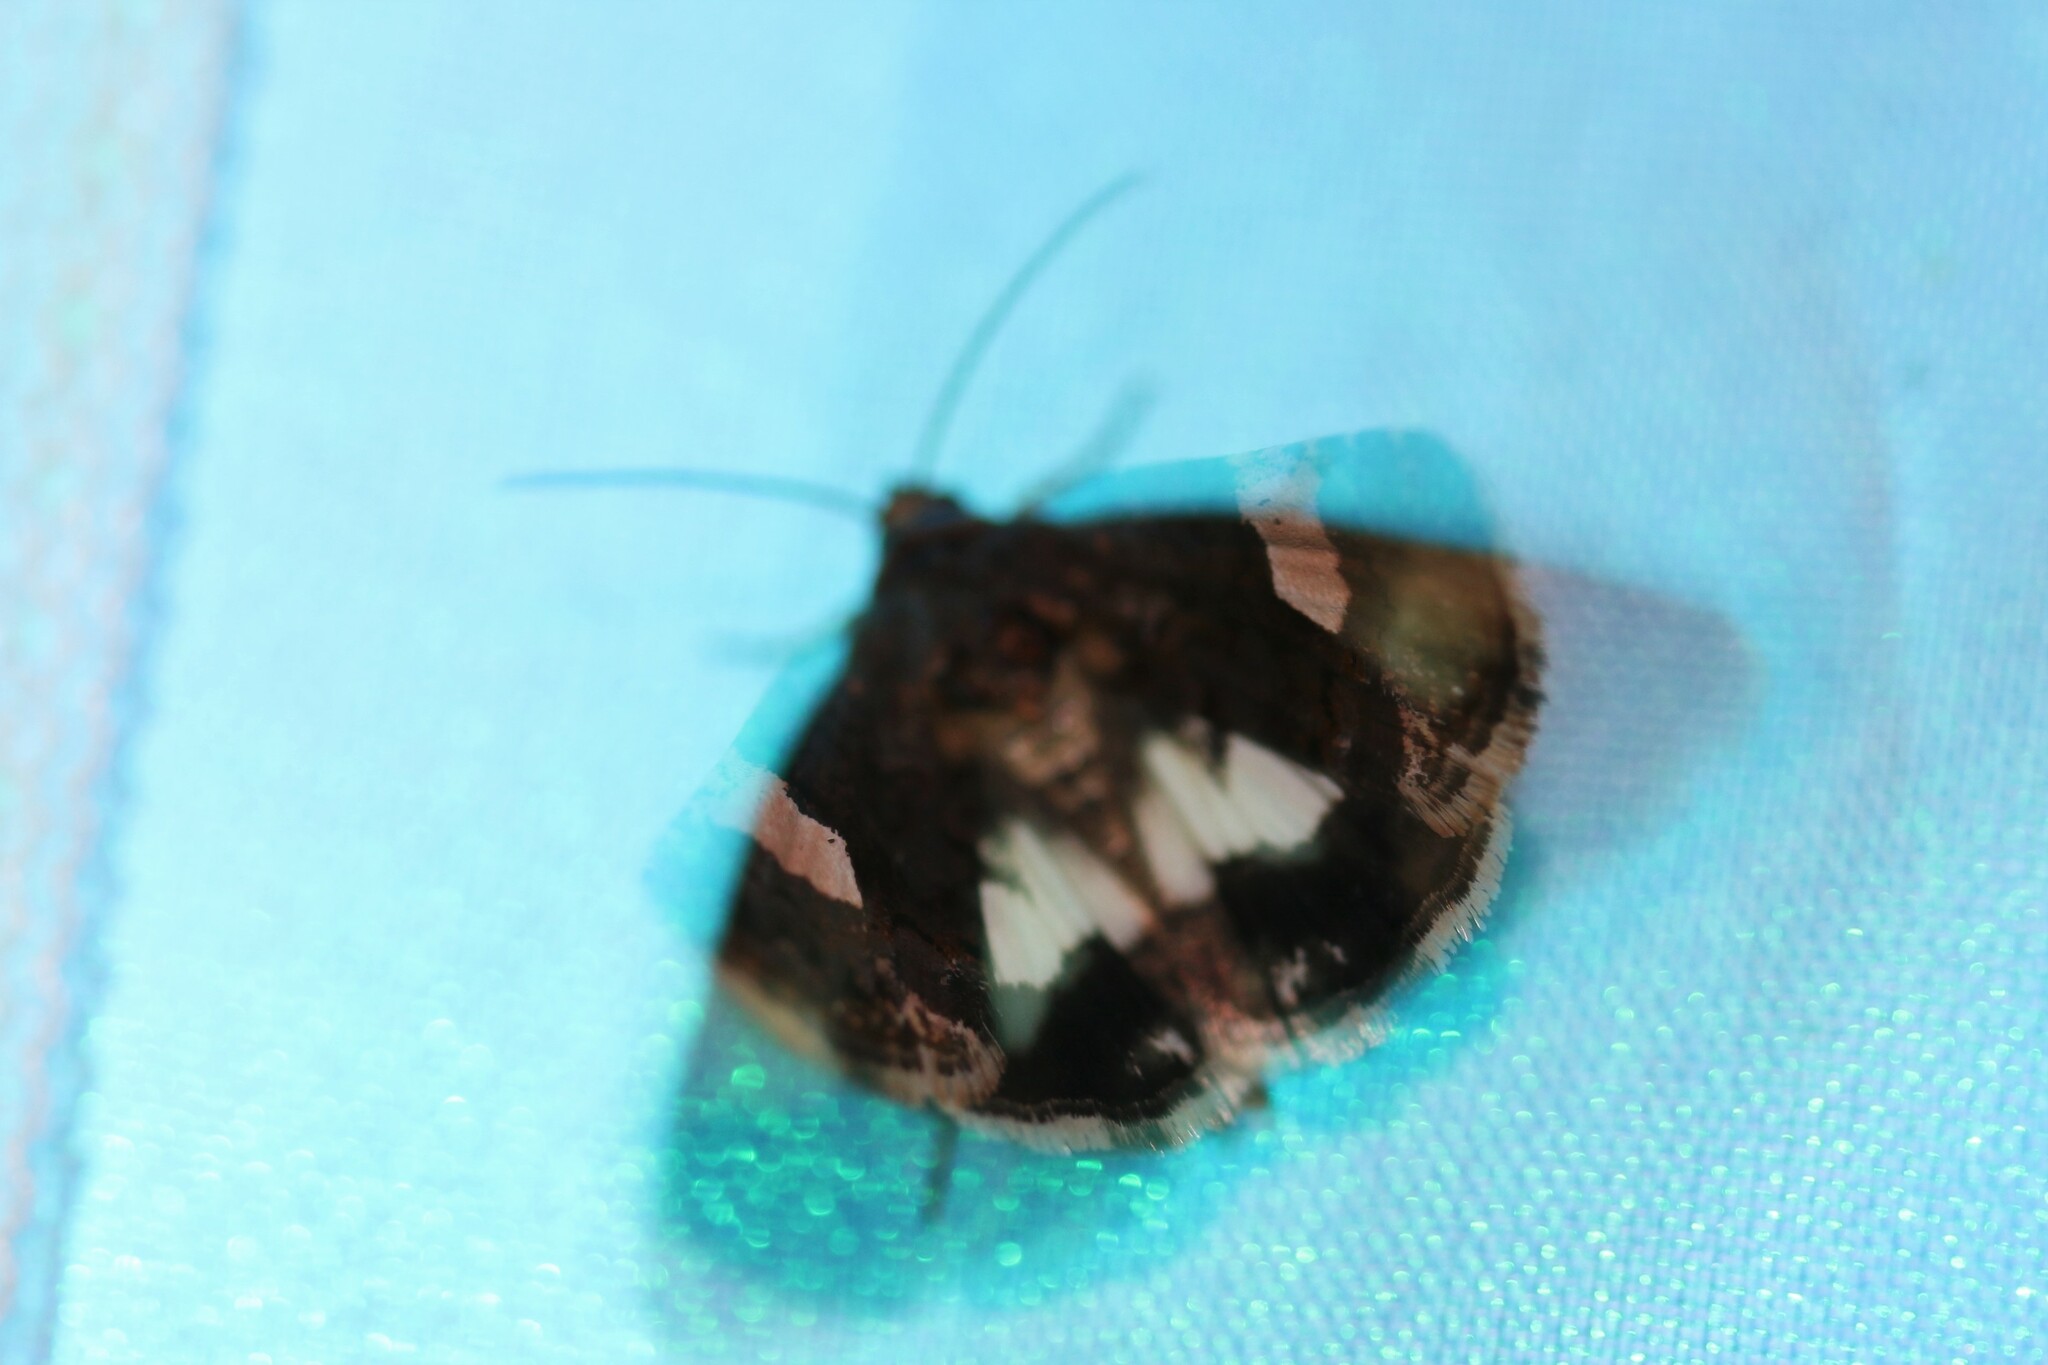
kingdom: Animalia
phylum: Arthropoda
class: Insecta
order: Lepidoptera
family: Erebidae
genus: Tyta
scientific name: Tyta luctuosa
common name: Four-spotted
